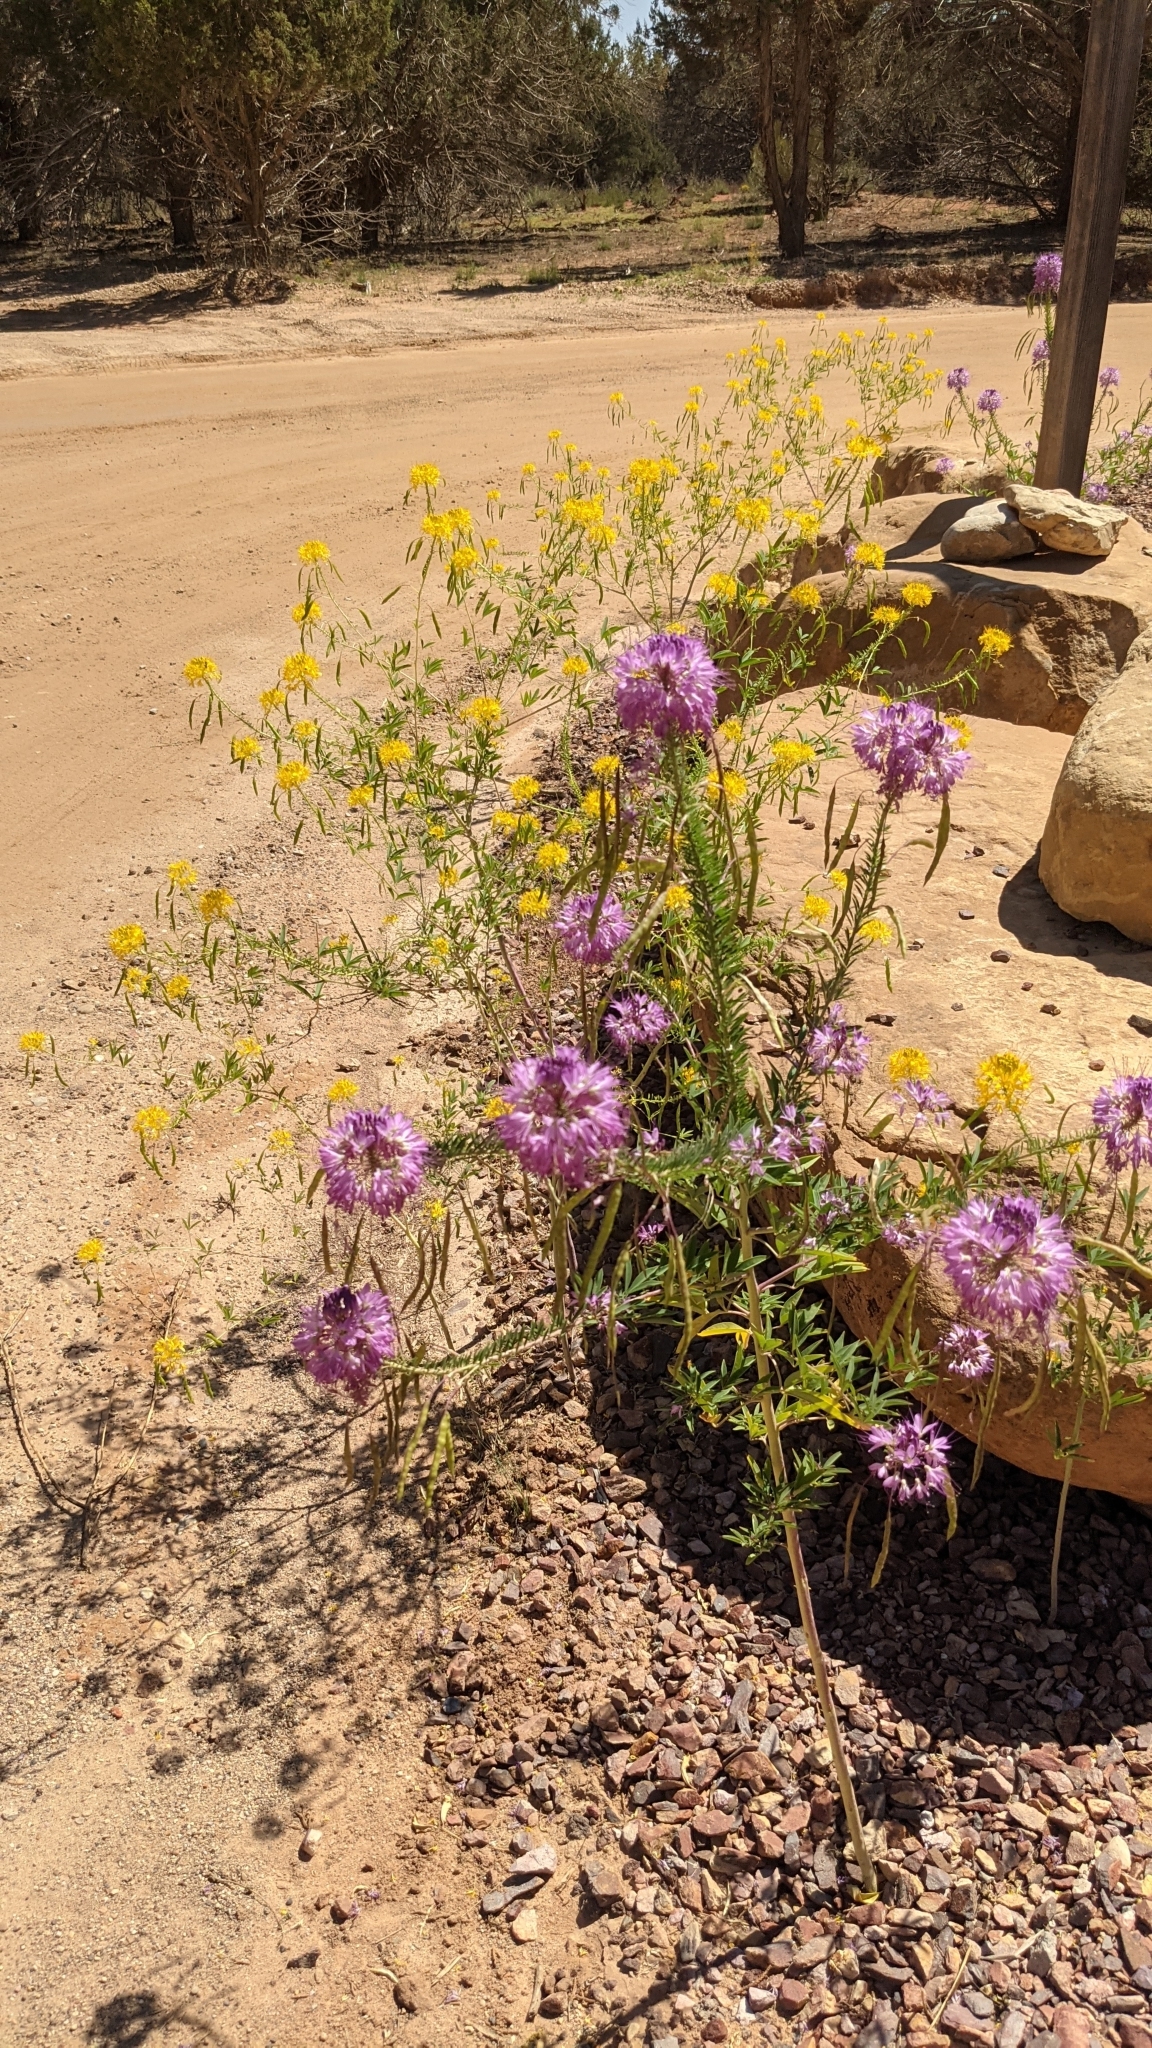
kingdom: Plantae
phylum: Tracheophyta
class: Magnoliopsida
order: Brassicales
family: Cleomaceae
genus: Cleomella
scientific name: Cleomella serrulata
